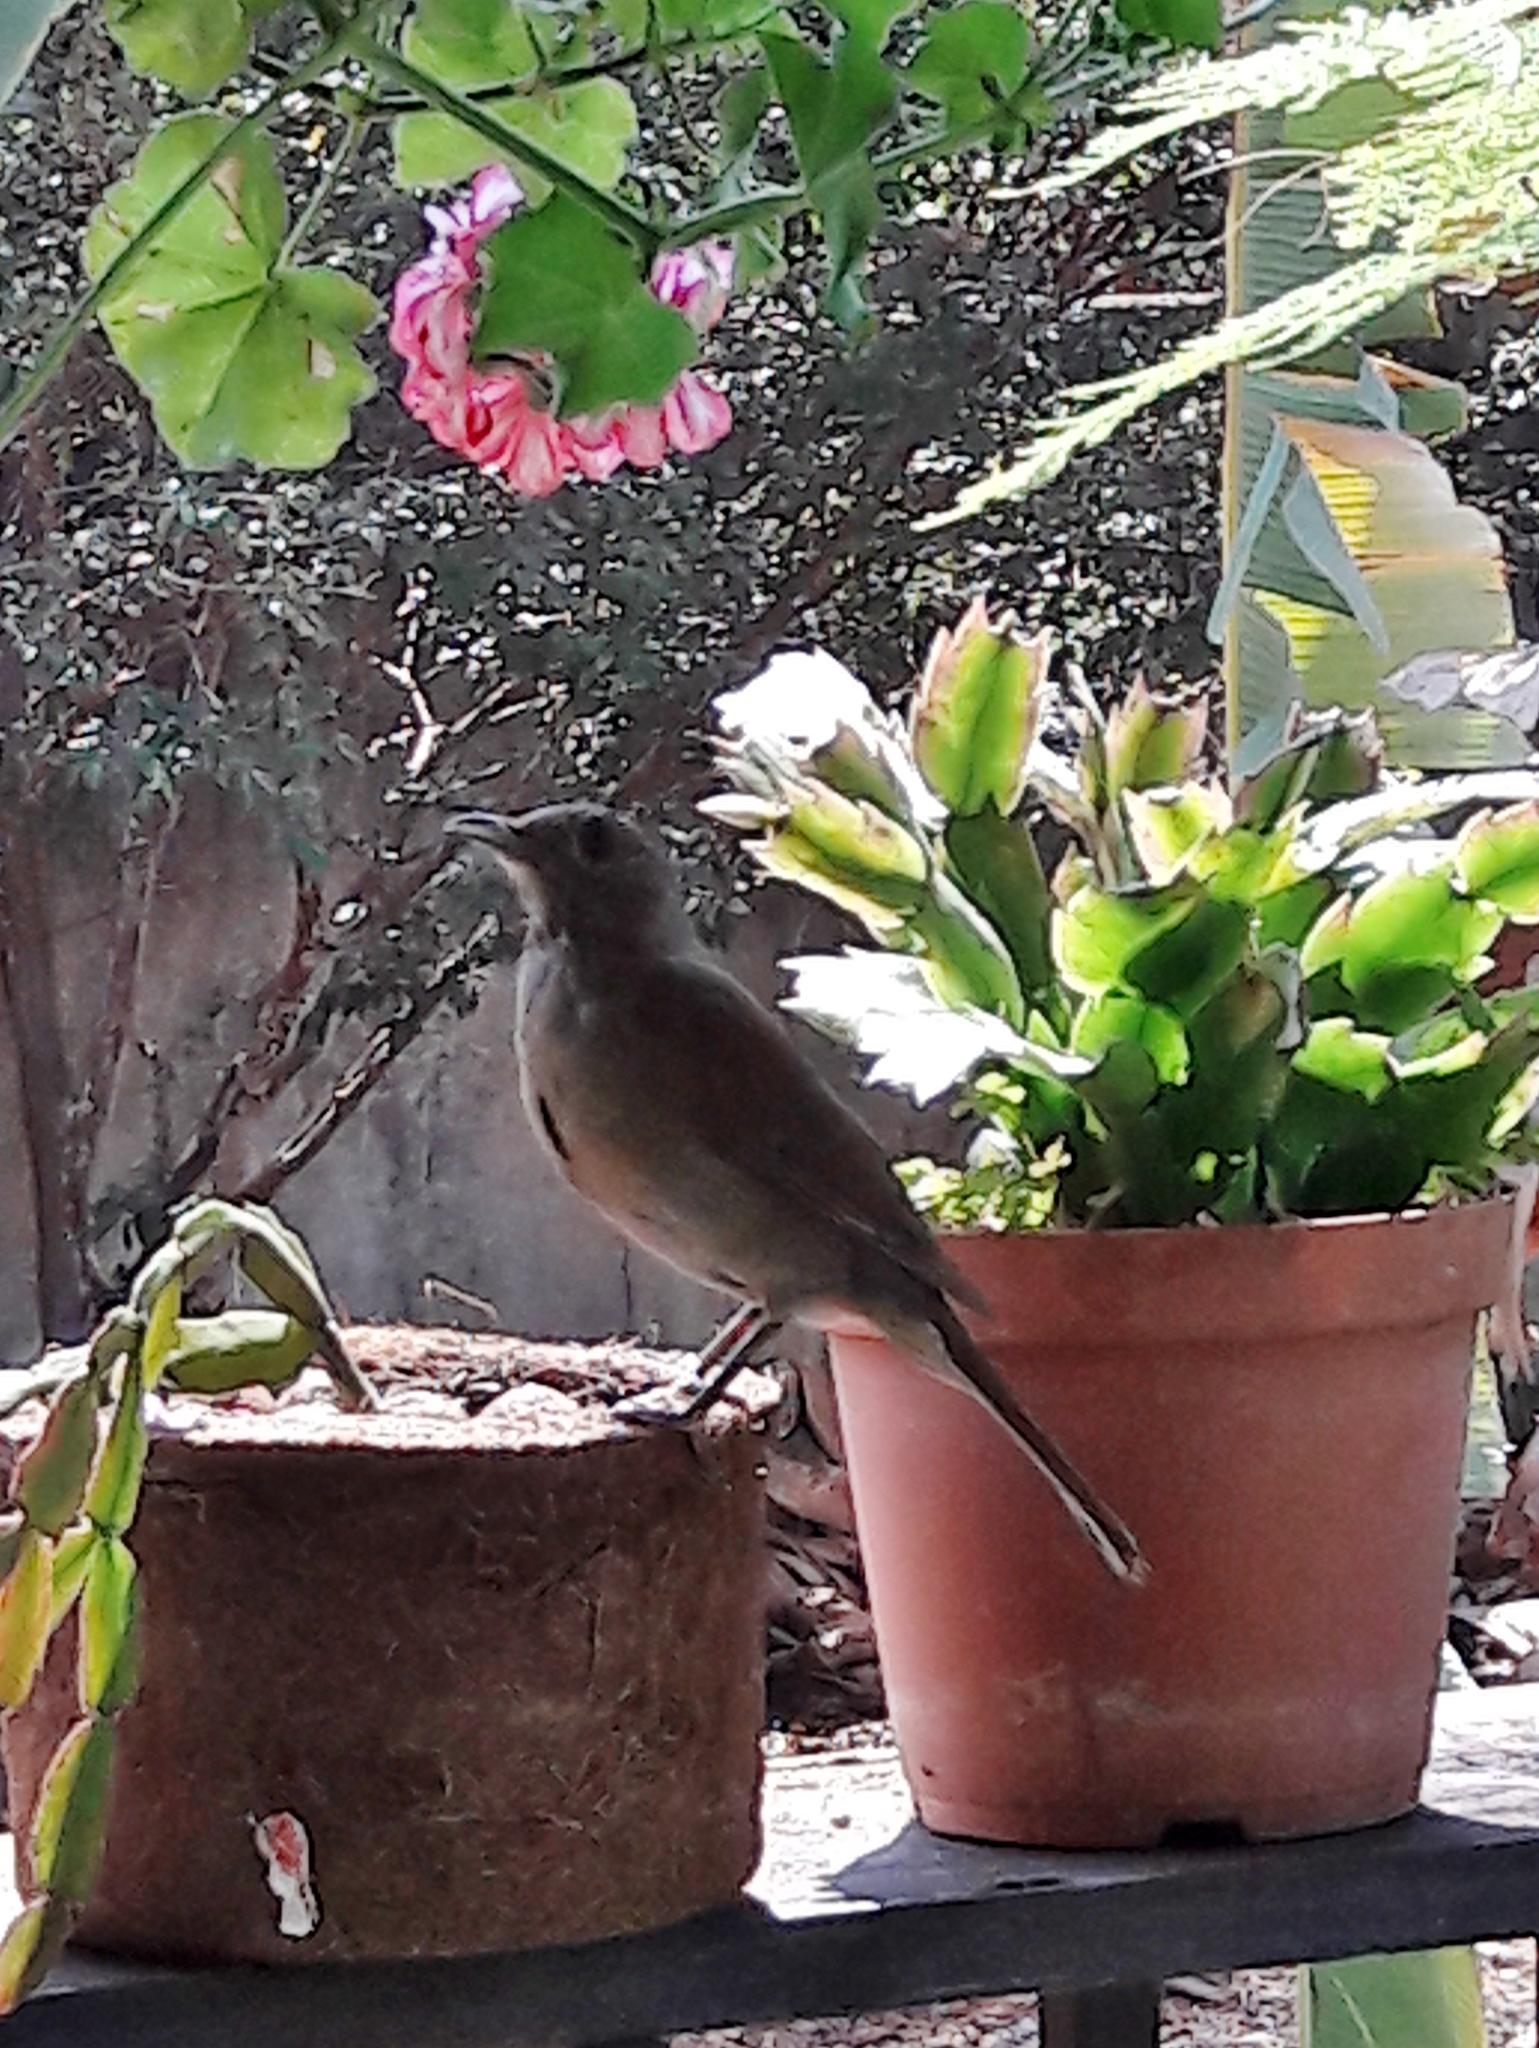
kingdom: Animalia
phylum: Chordata
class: Aves
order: Passeriformes
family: Turdidae
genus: Turdus
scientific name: Turdus leucomelas
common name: Pale-breasted thrush
